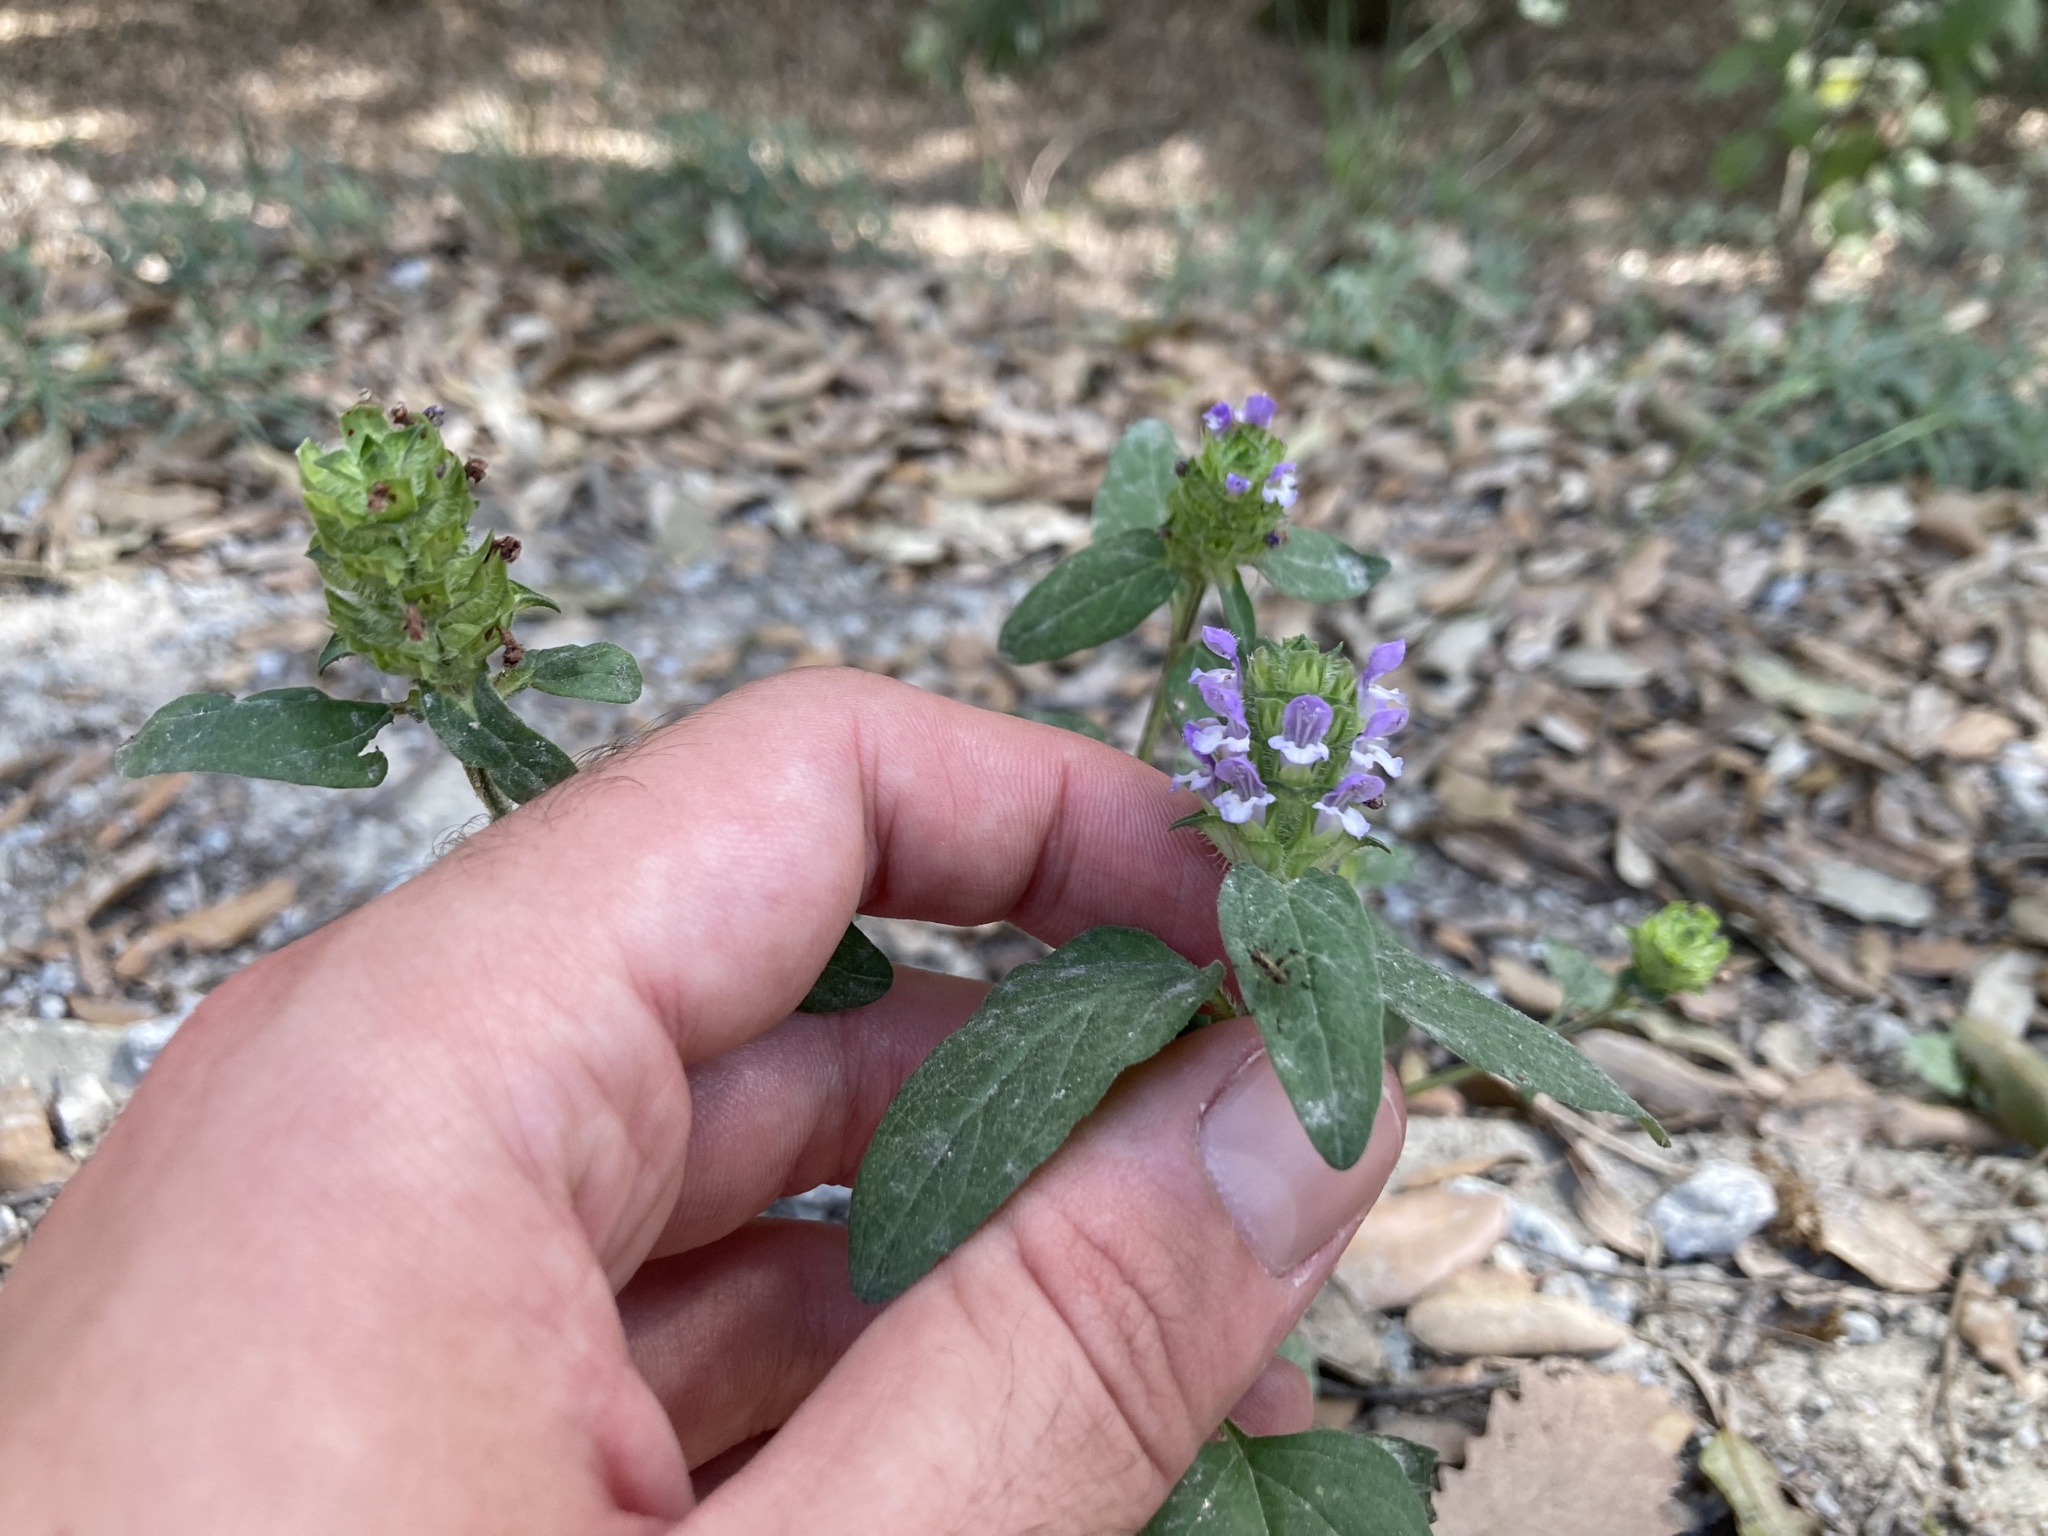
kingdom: Plantae
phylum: Tracheophyta
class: Magnoliopsida
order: Lamiales
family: Lamiaceae
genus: Prunella
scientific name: Prunella vulgaris
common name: Heal-all
